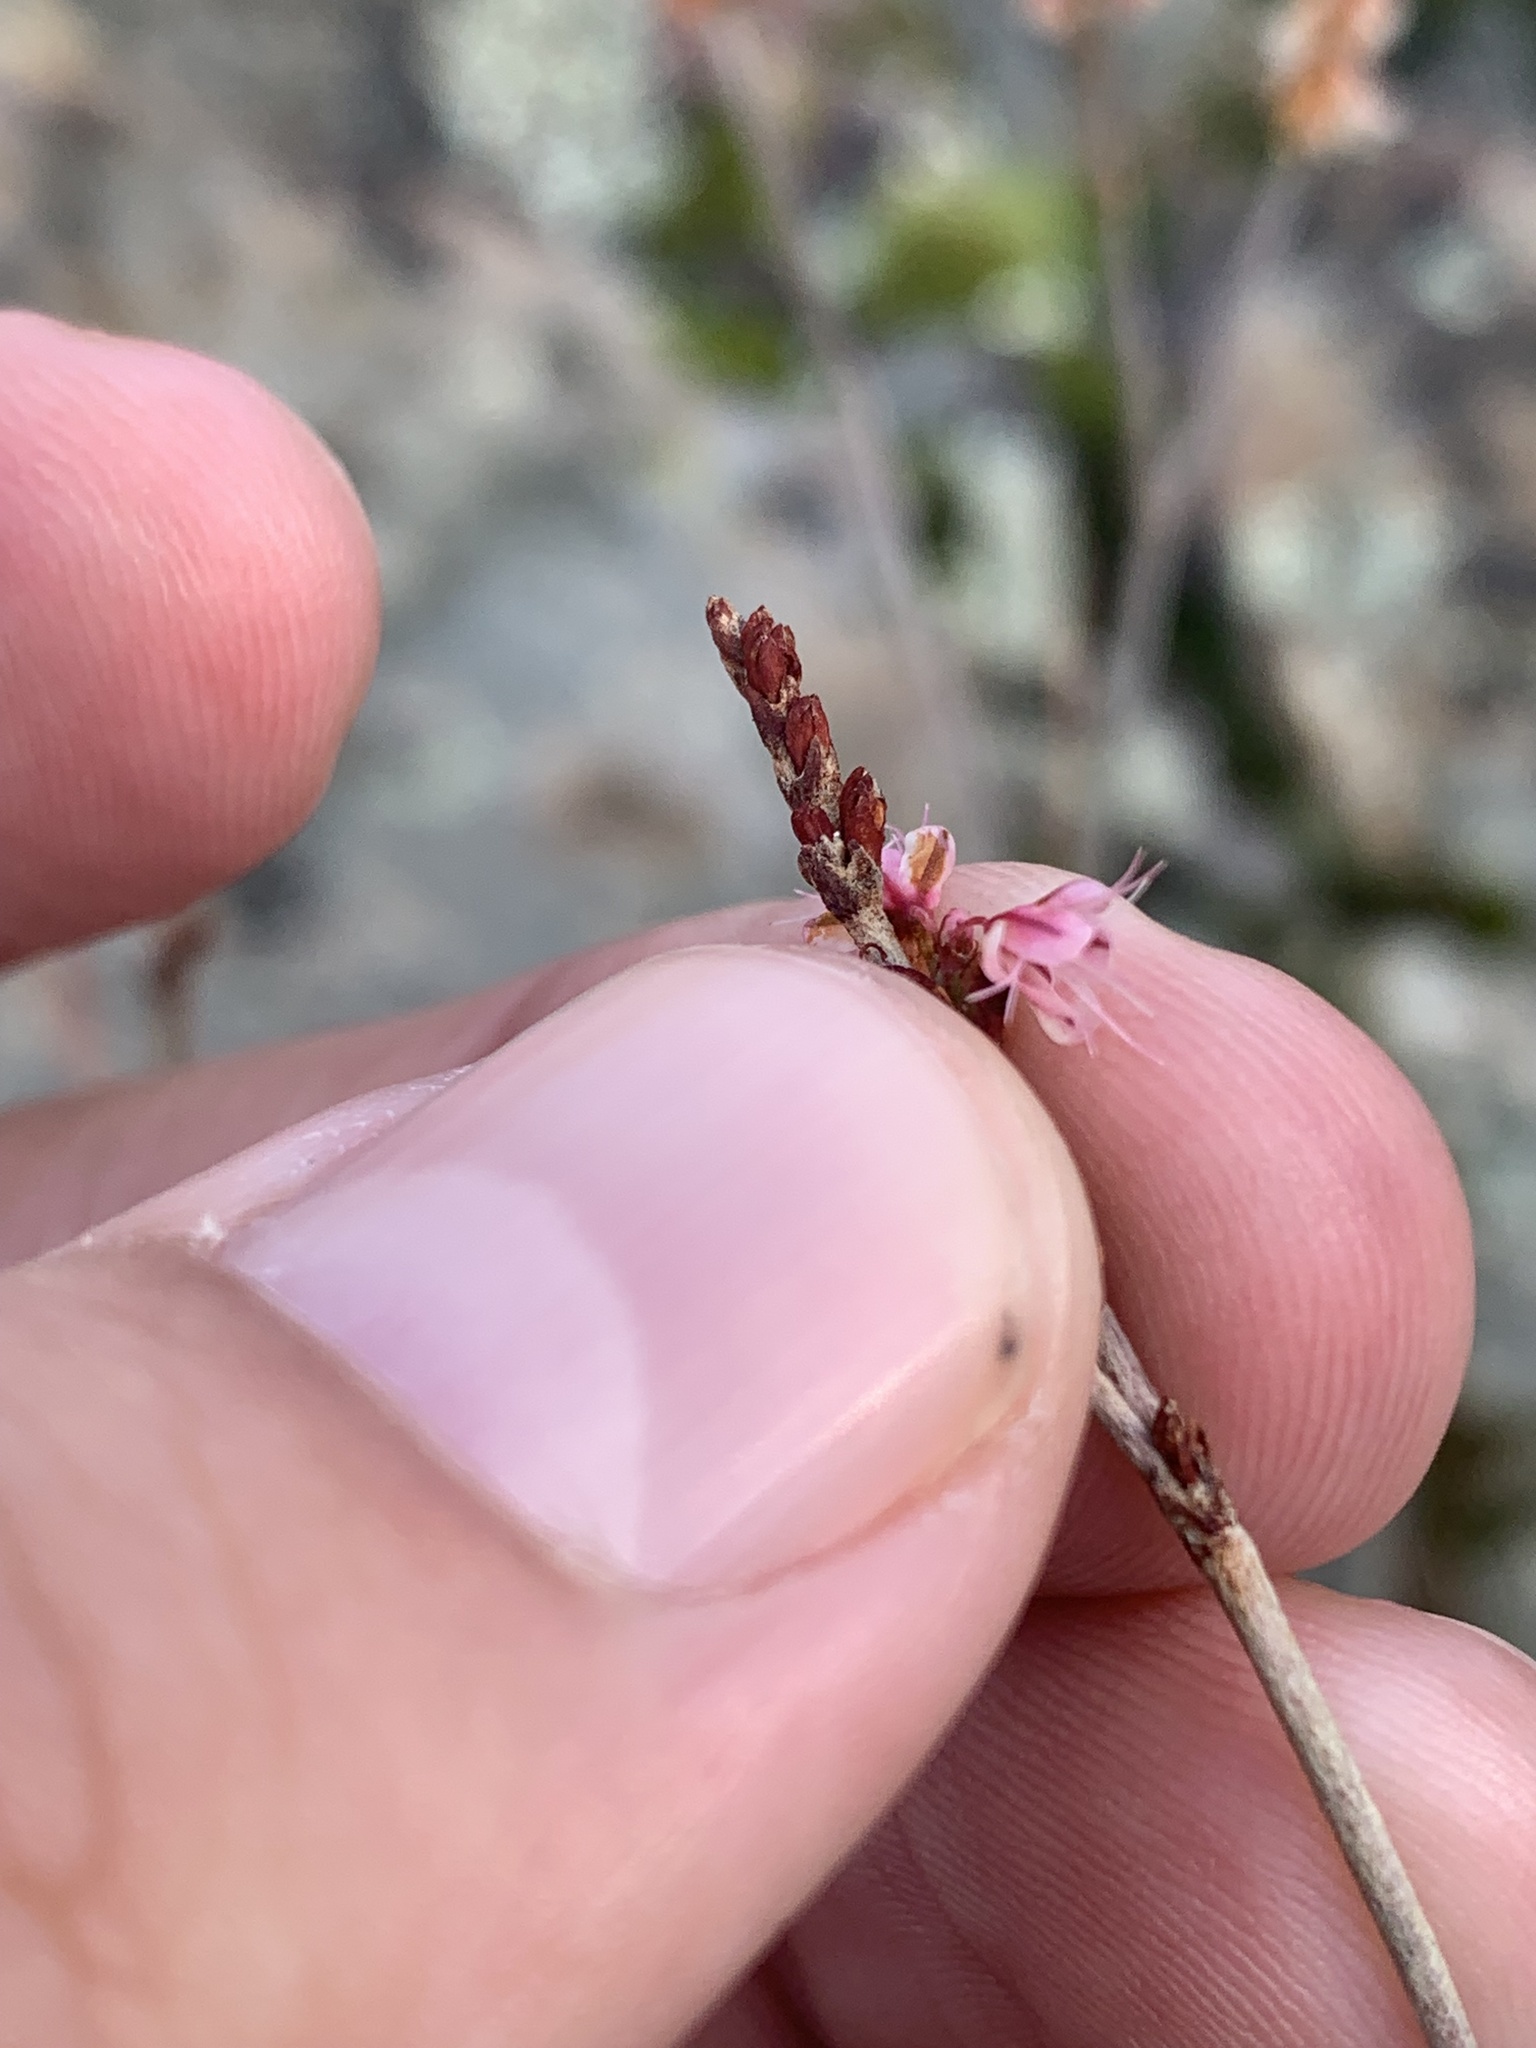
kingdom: Plantae
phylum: Tracheophyta
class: Magnoliopsida
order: Caryophyllales
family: Polygonaceae
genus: Eriogonum
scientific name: Eriogonum wrightii
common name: Bastard-sage
